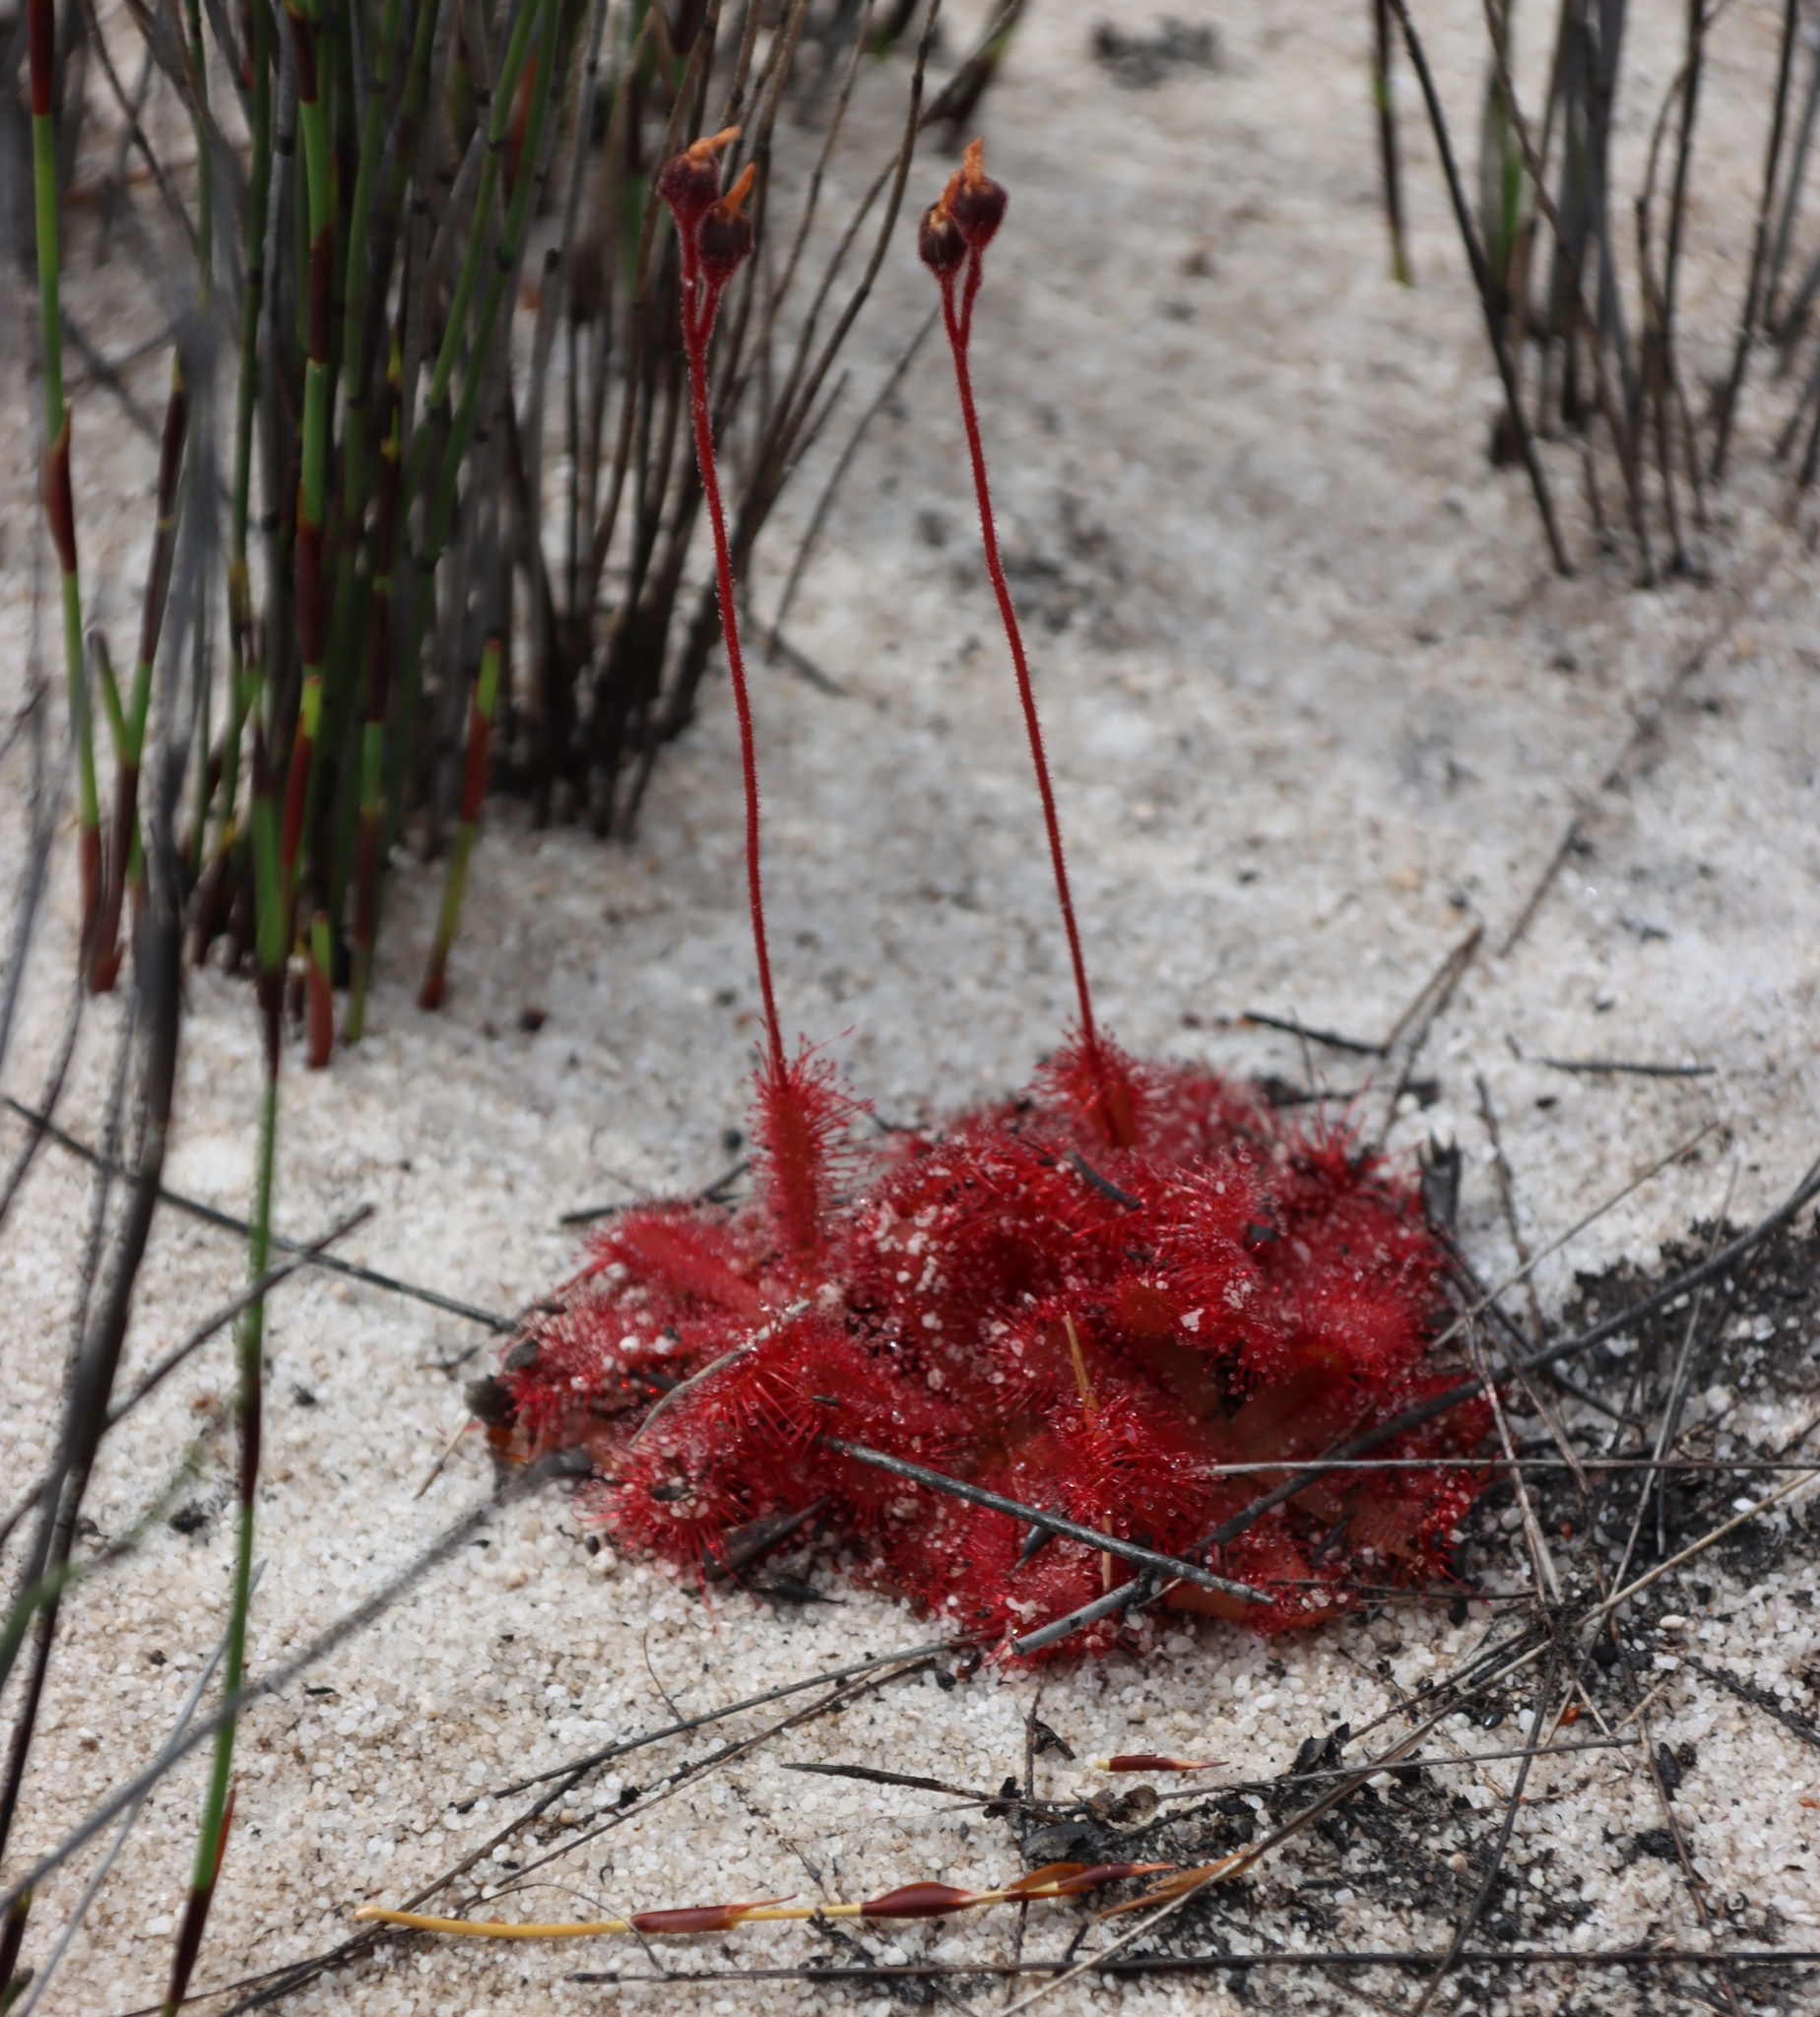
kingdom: Plantae
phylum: Tracheophyta
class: Magnoliopsida
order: Caryophyllales
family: Droseraceae
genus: Drosera
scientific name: Drosera trinervia
